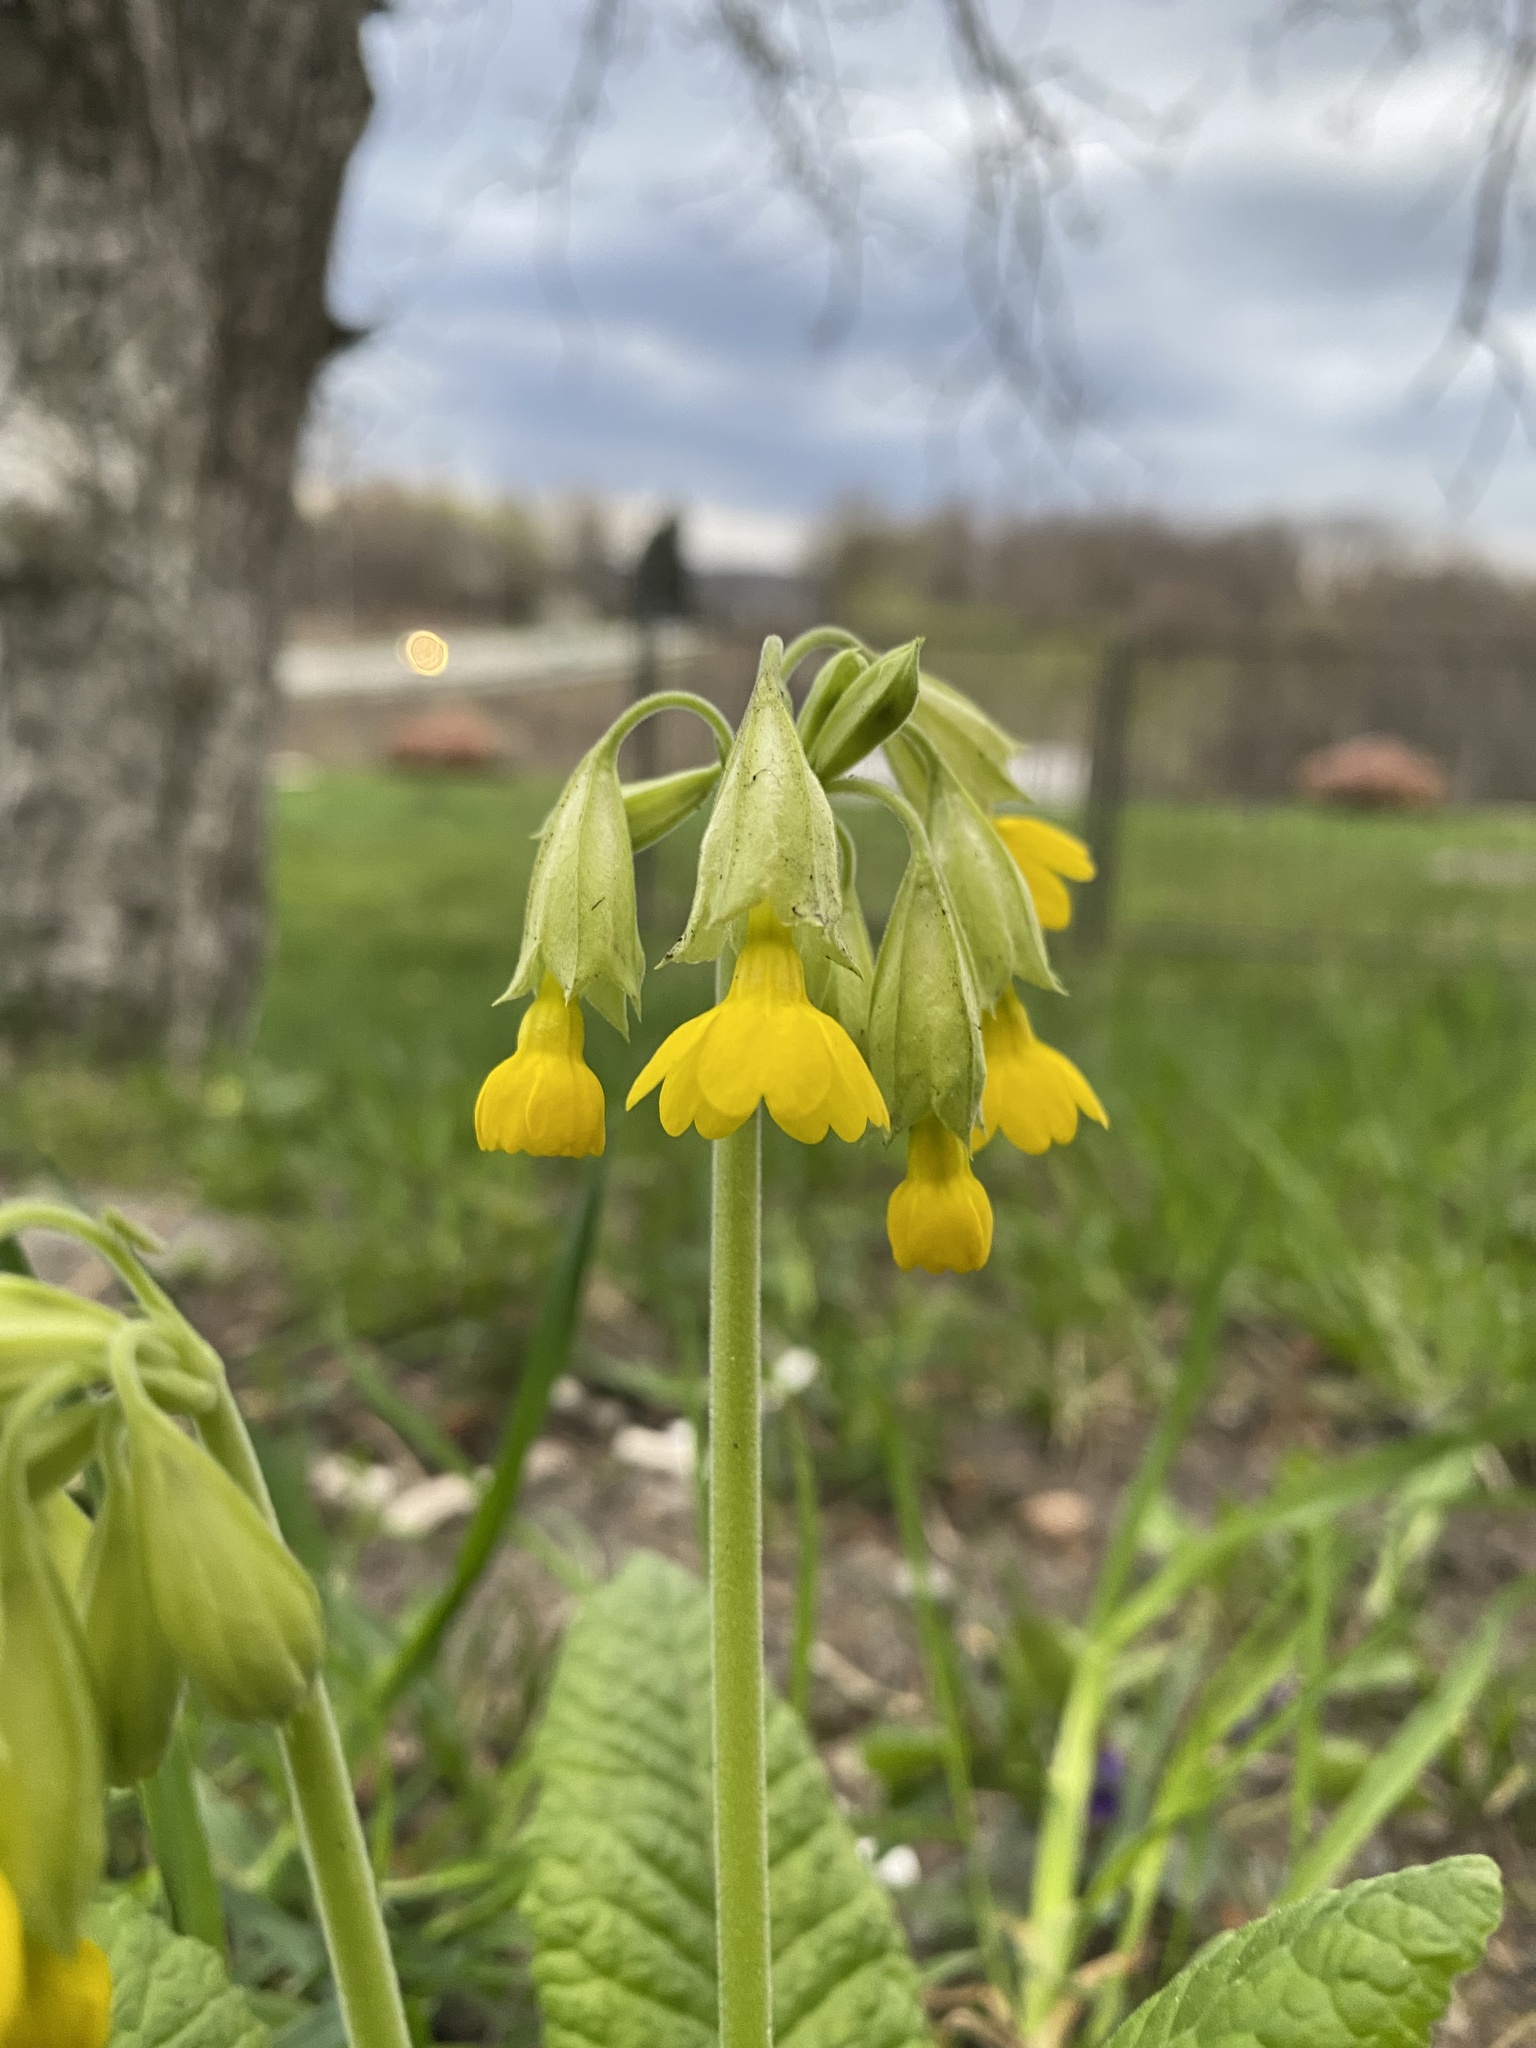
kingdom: Plantae
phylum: Tracheophyta
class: Magnoliopsida
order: Ericales
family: Primulaceae
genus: Primula
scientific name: Primula veris
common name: Cowslip
